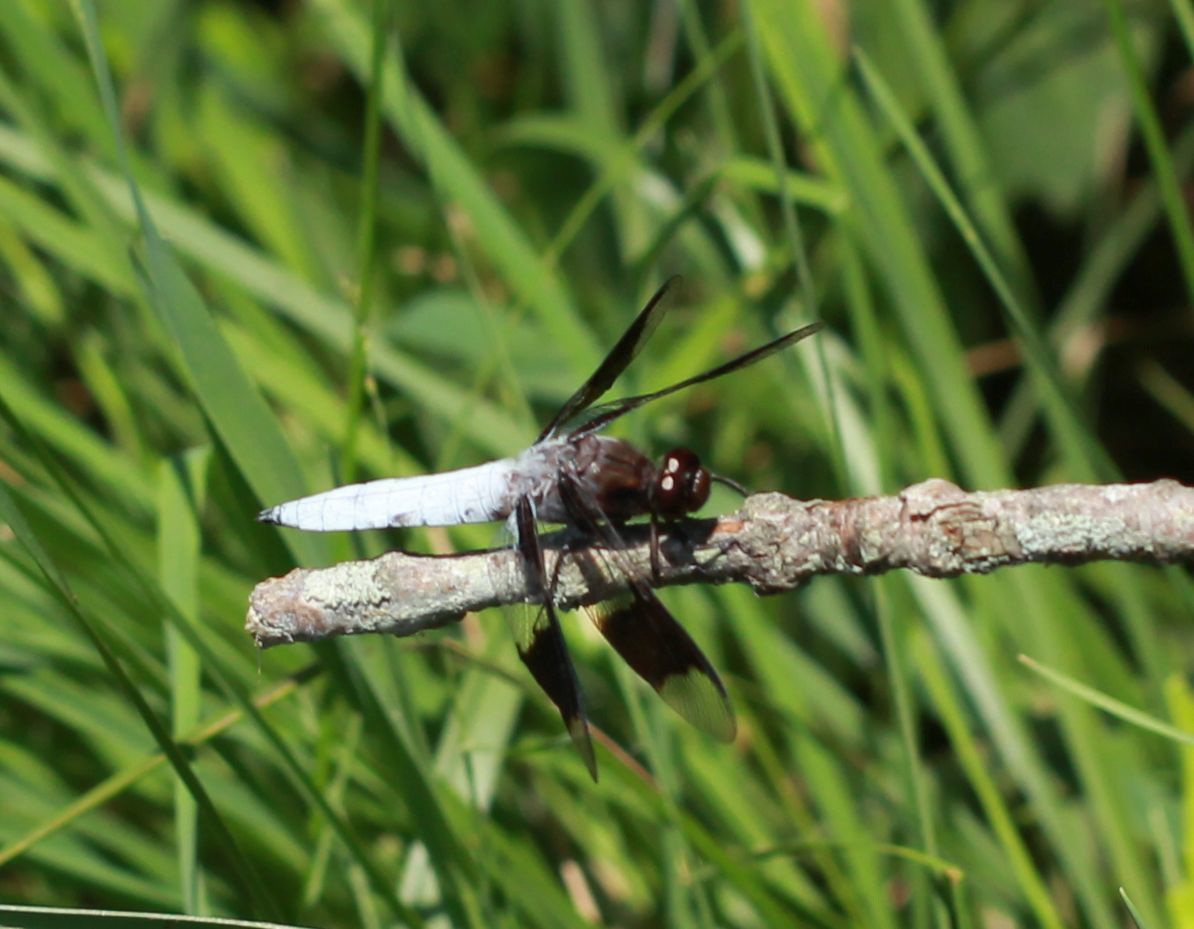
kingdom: Animalia
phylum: Arthropoda
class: Insecta
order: Odonata
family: Libellulidae
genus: Plathemis
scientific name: Plathemis lydia
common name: Common whitetail
